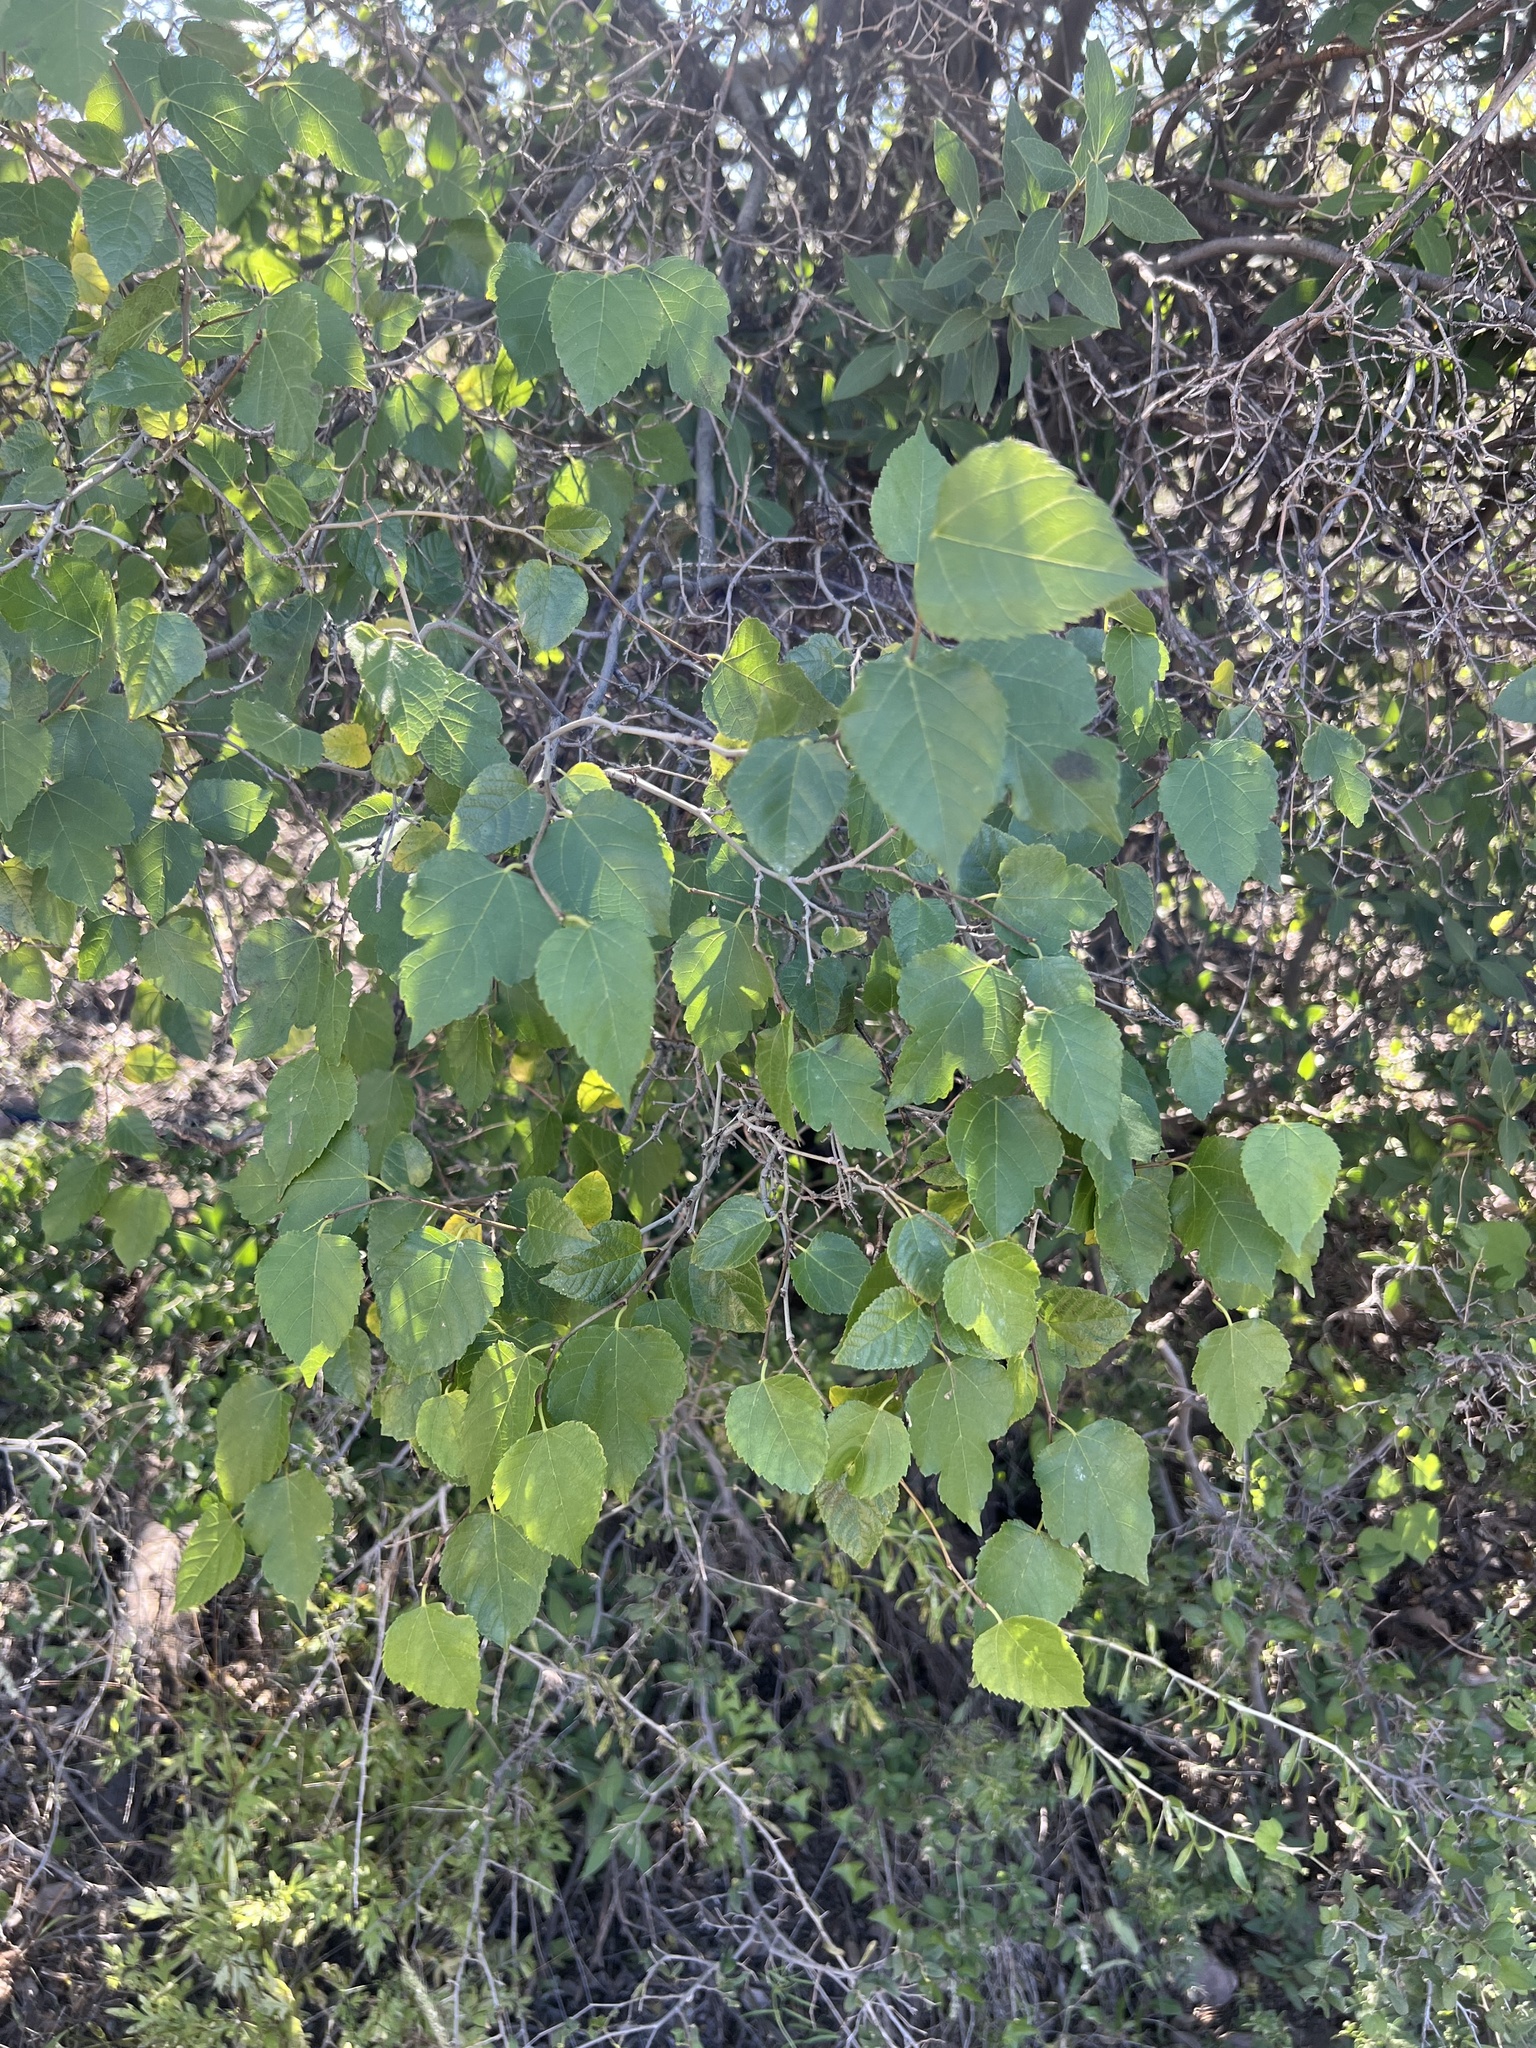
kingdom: Plantae
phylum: Tracheophyta
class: Magnoliopsida
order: Rosales
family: Moraceae
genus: Morus
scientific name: Morus microphylla
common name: Mexican mulberry
